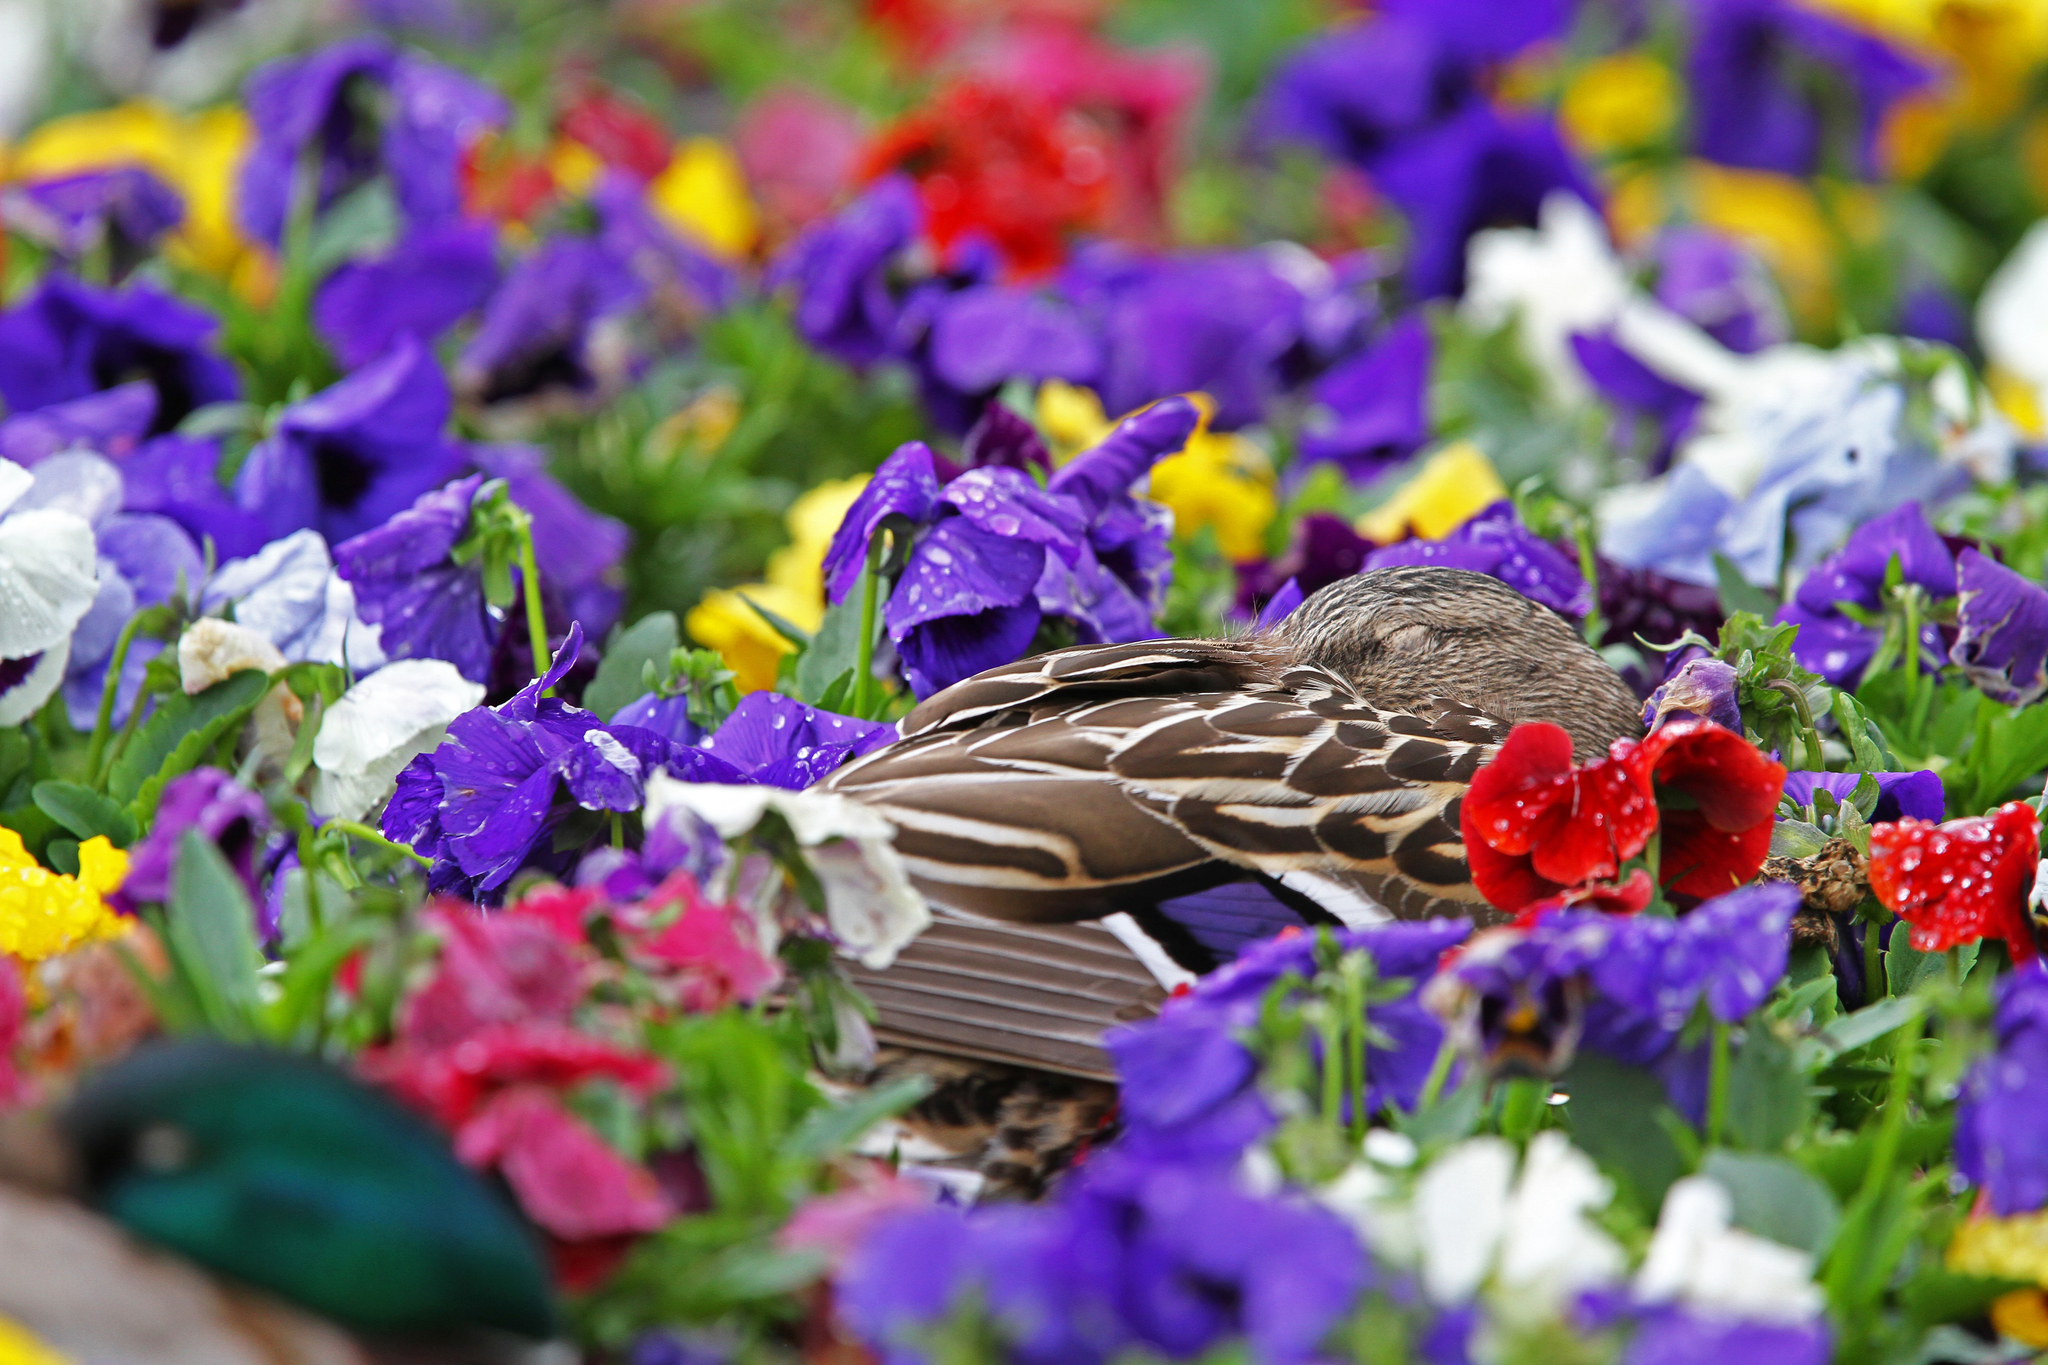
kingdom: Animalia
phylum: Chordata
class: Aves
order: Anseriformes
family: Anatidae
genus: Anas
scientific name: Anas platyrhynchos
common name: Mallard
